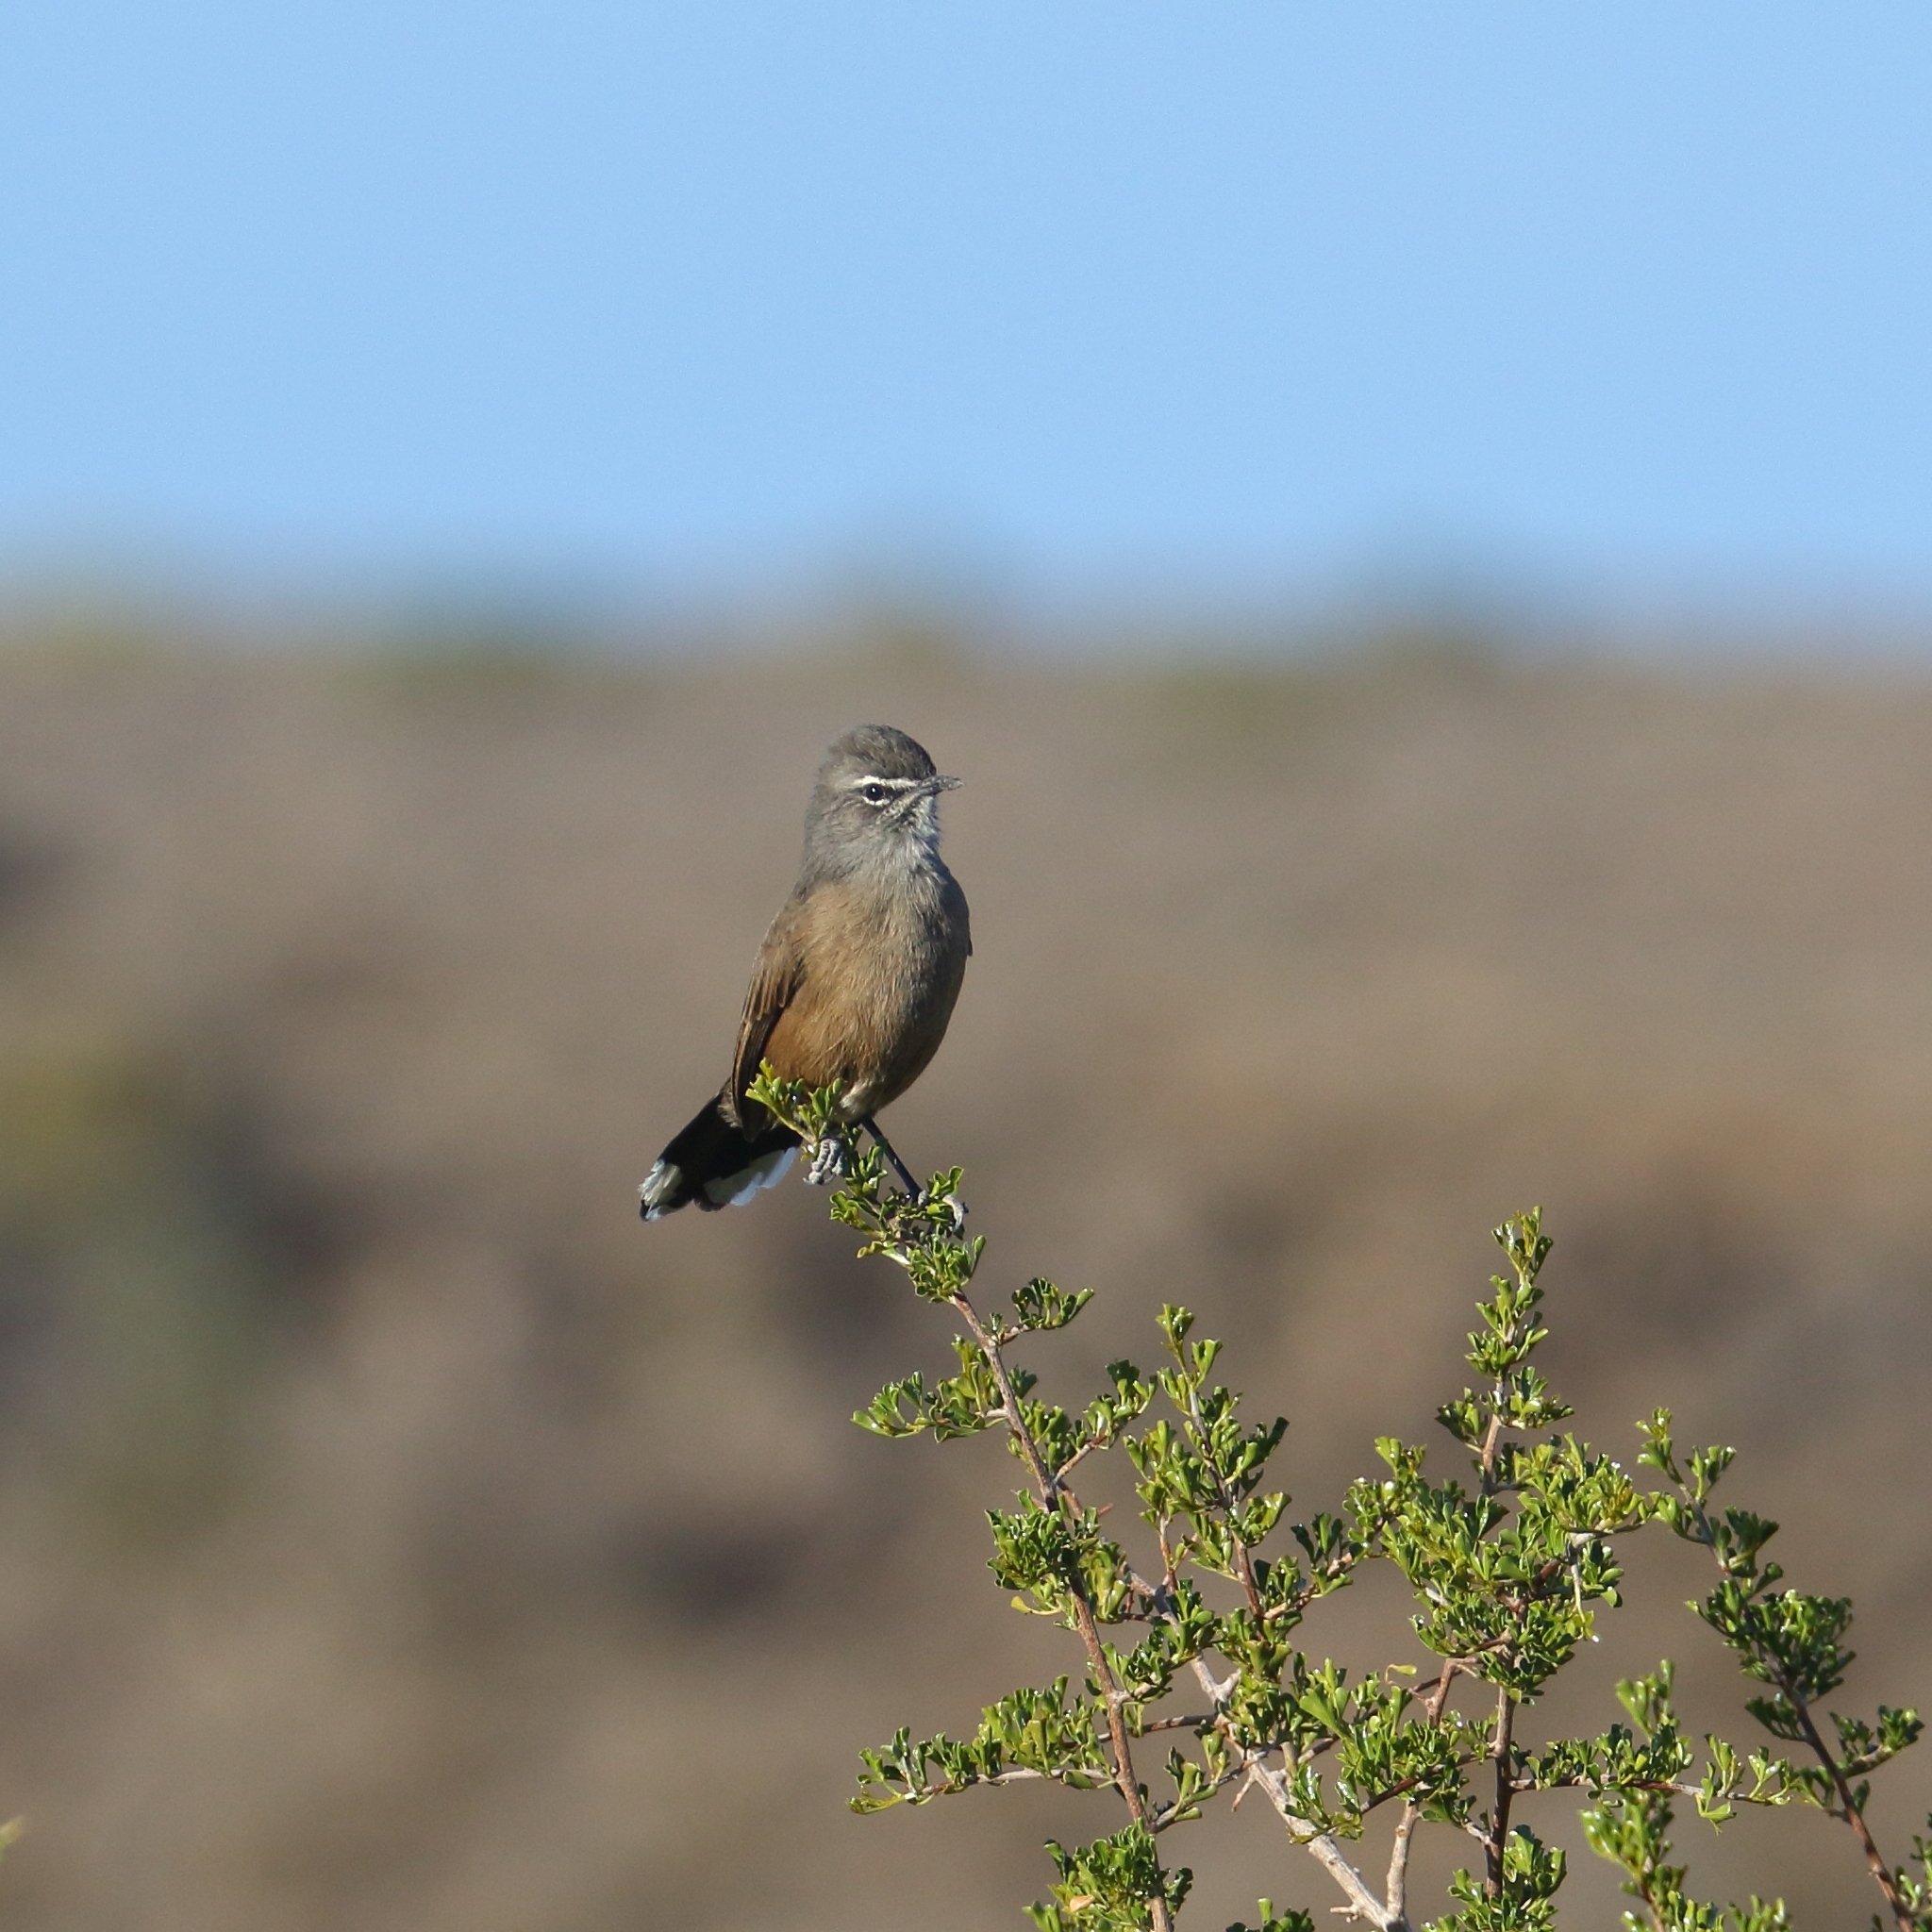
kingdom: Animalia
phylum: Chordata
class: Aves
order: Passeriformes
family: Muscicapidae
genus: Erythropygia
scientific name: Erythropygia coryphoeus
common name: Karoo scrub robin
